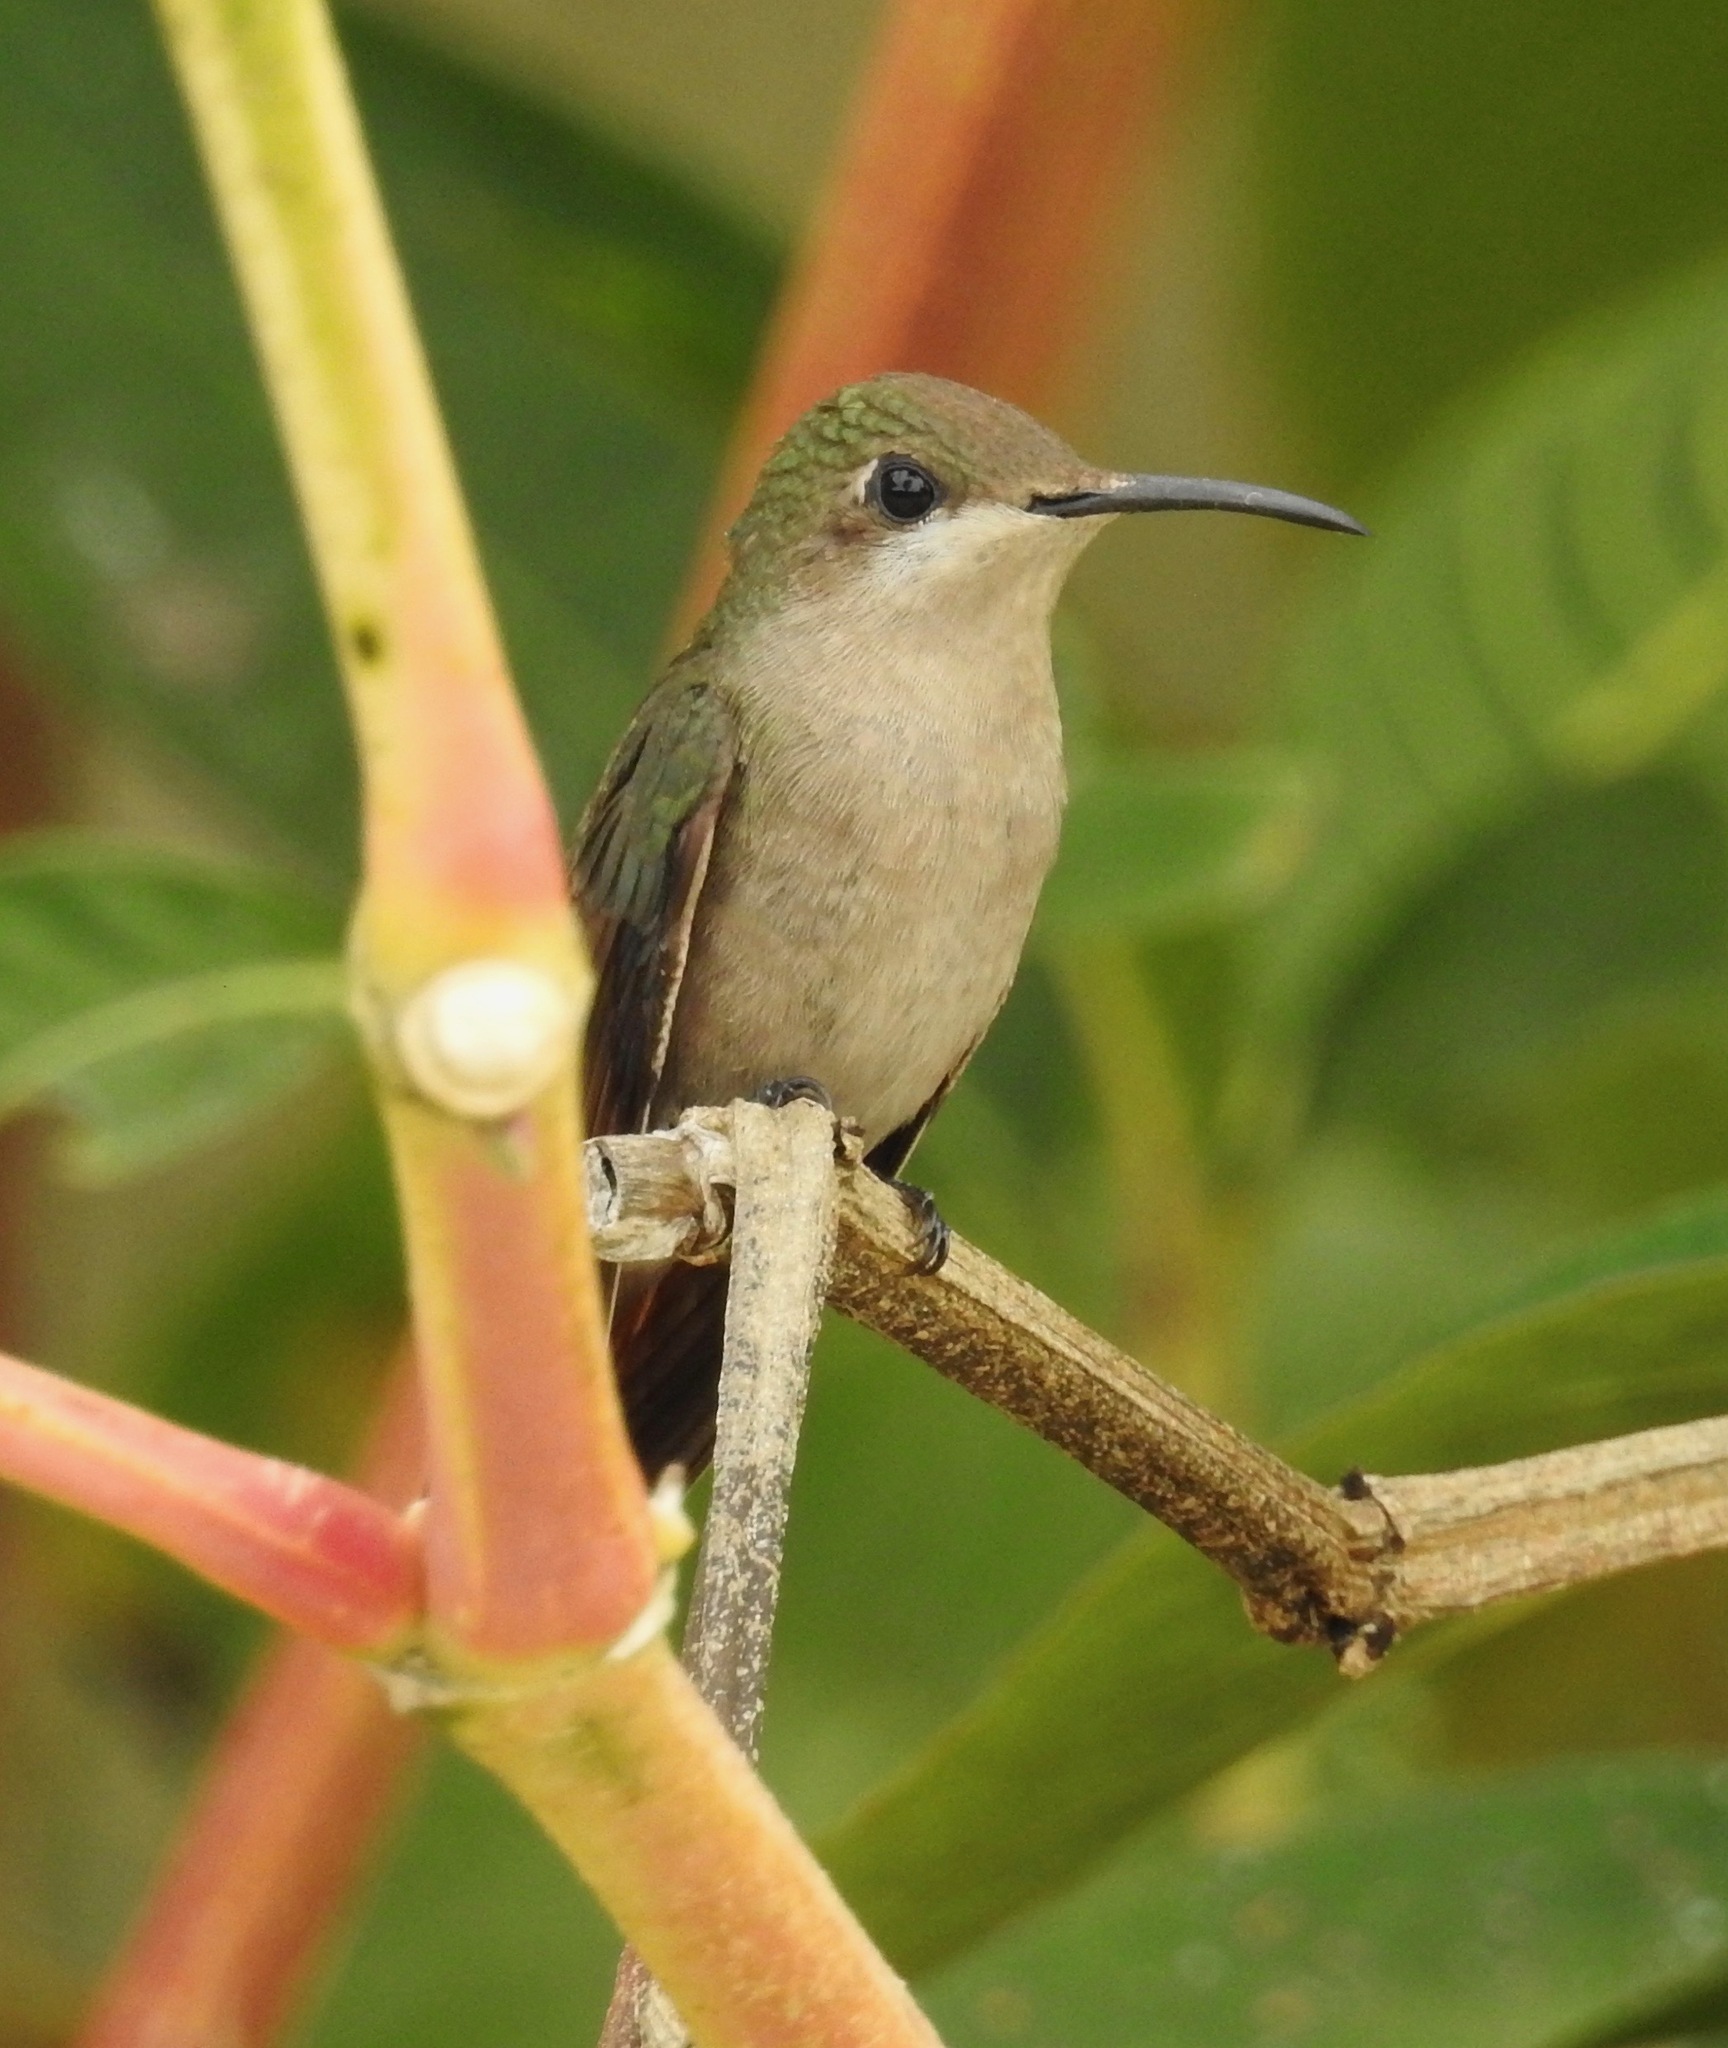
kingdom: Animalia
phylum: Chordata
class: Aves
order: Apodiformes
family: Trochilidae
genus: Thalurania
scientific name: Thalurania glaucopis
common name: Violet-capped woodnymph
